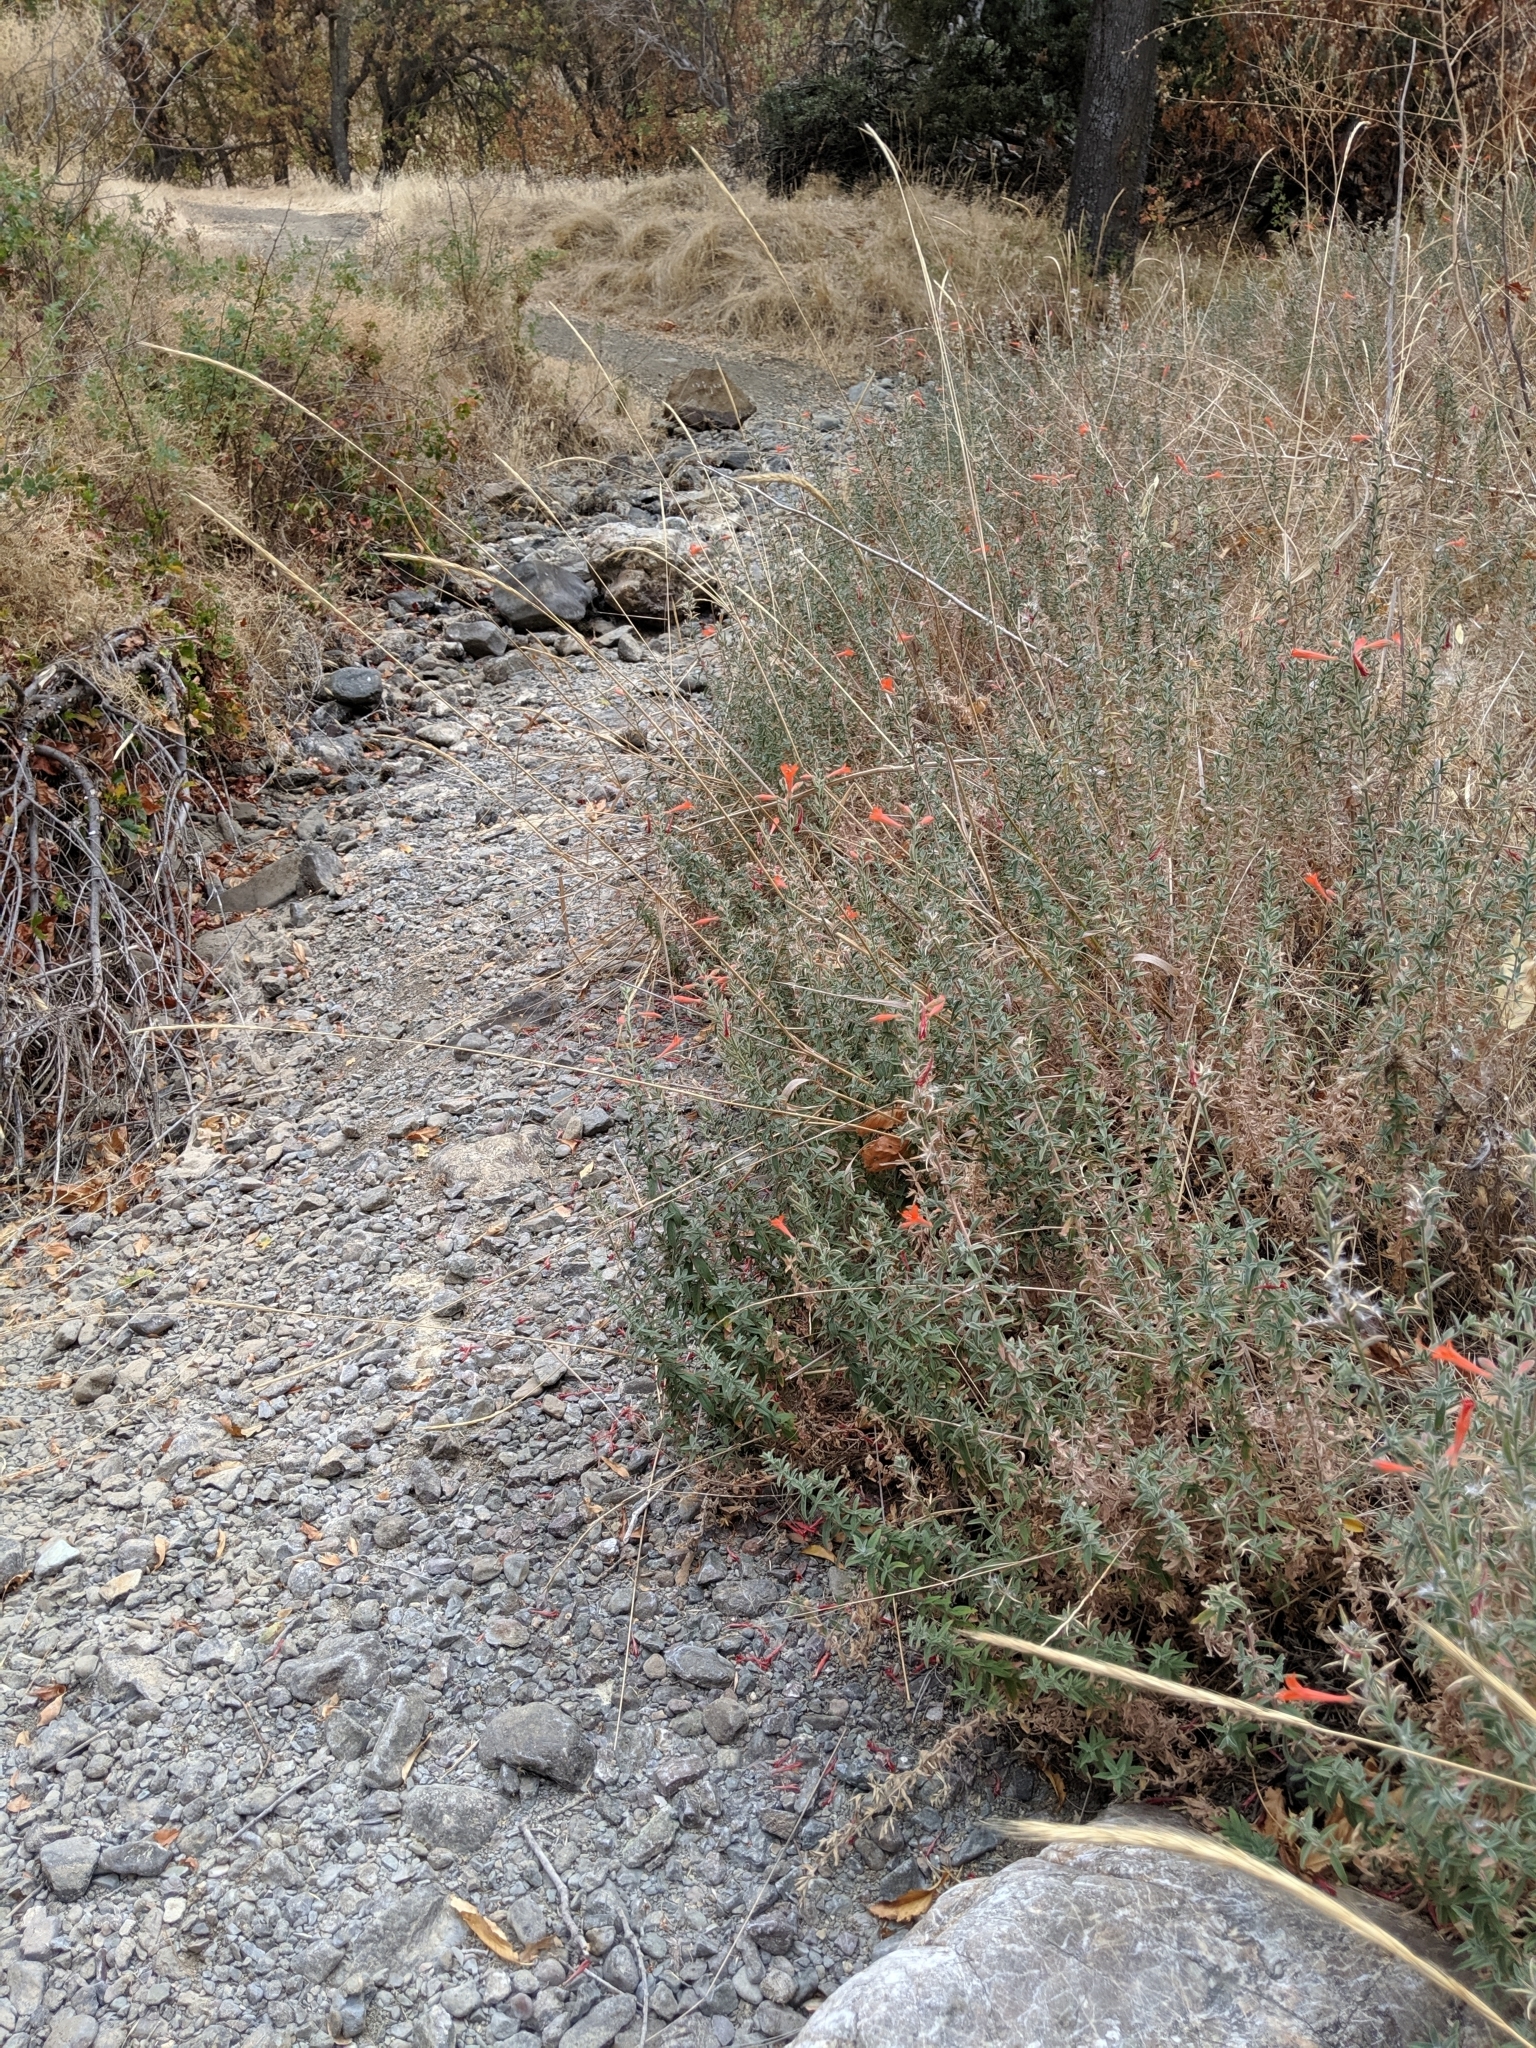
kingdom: Plantae
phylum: Tracheophyta
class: Magnoliopsida
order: Myrtales
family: Onagraceae
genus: Epilobium
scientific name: Epilobium canum
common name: California-fuchsia
